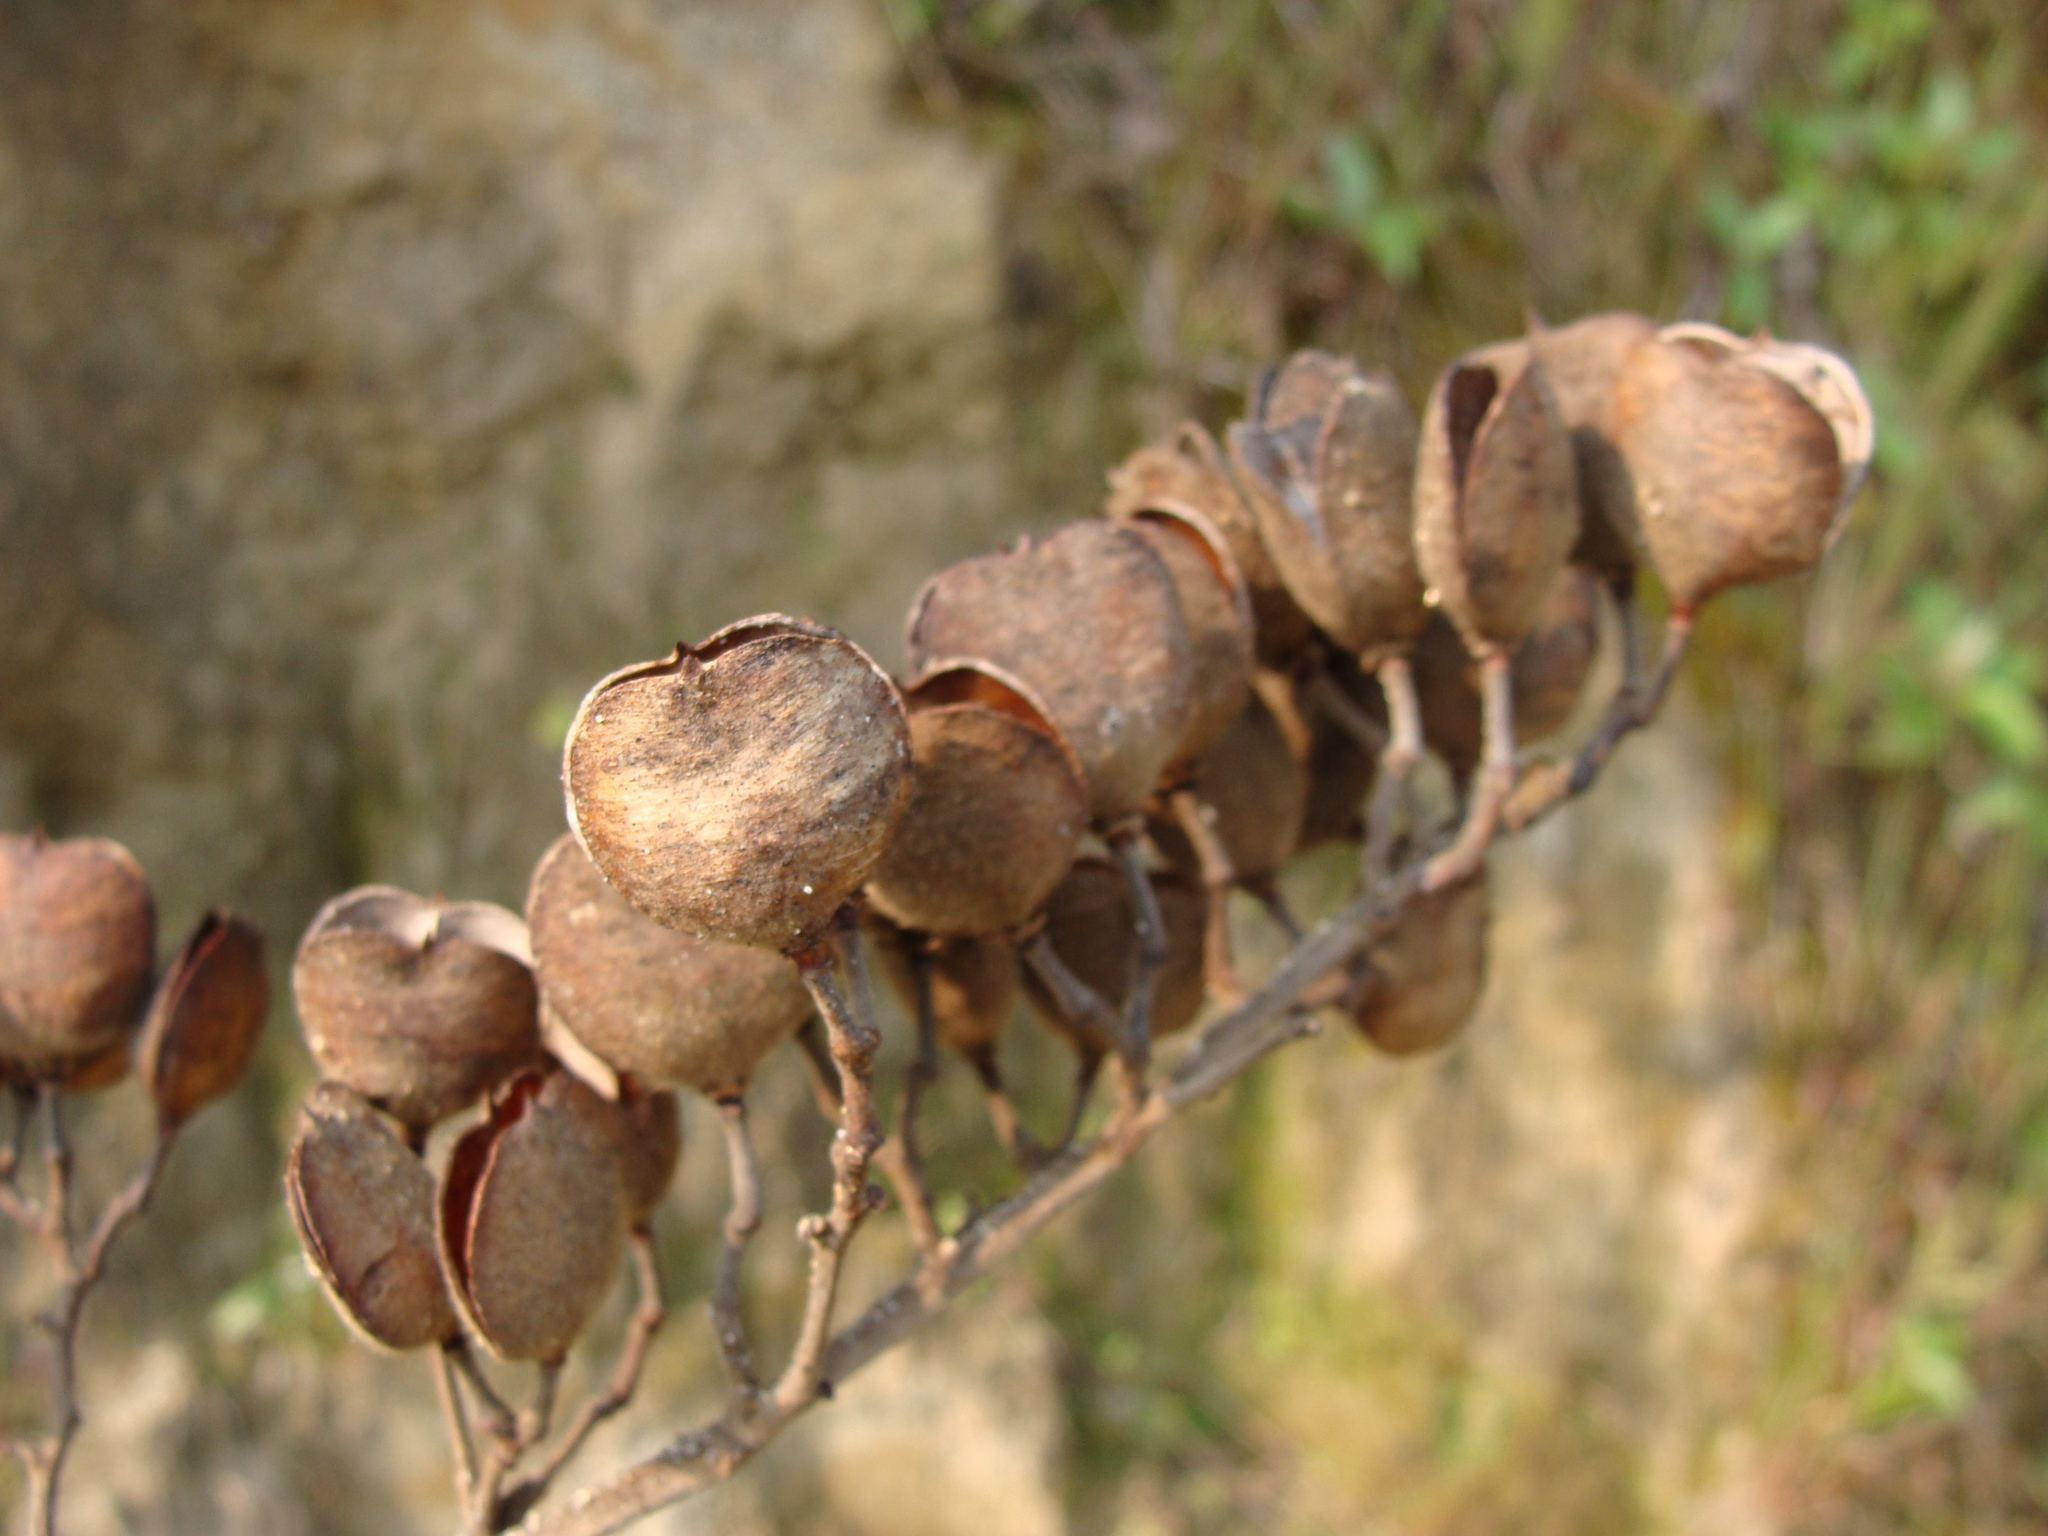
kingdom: Plantae
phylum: Tracheophyta
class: Magnoliopsida
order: Malvales
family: Malvaceae
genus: Trichospermum
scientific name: Trichospermum mexicanum
